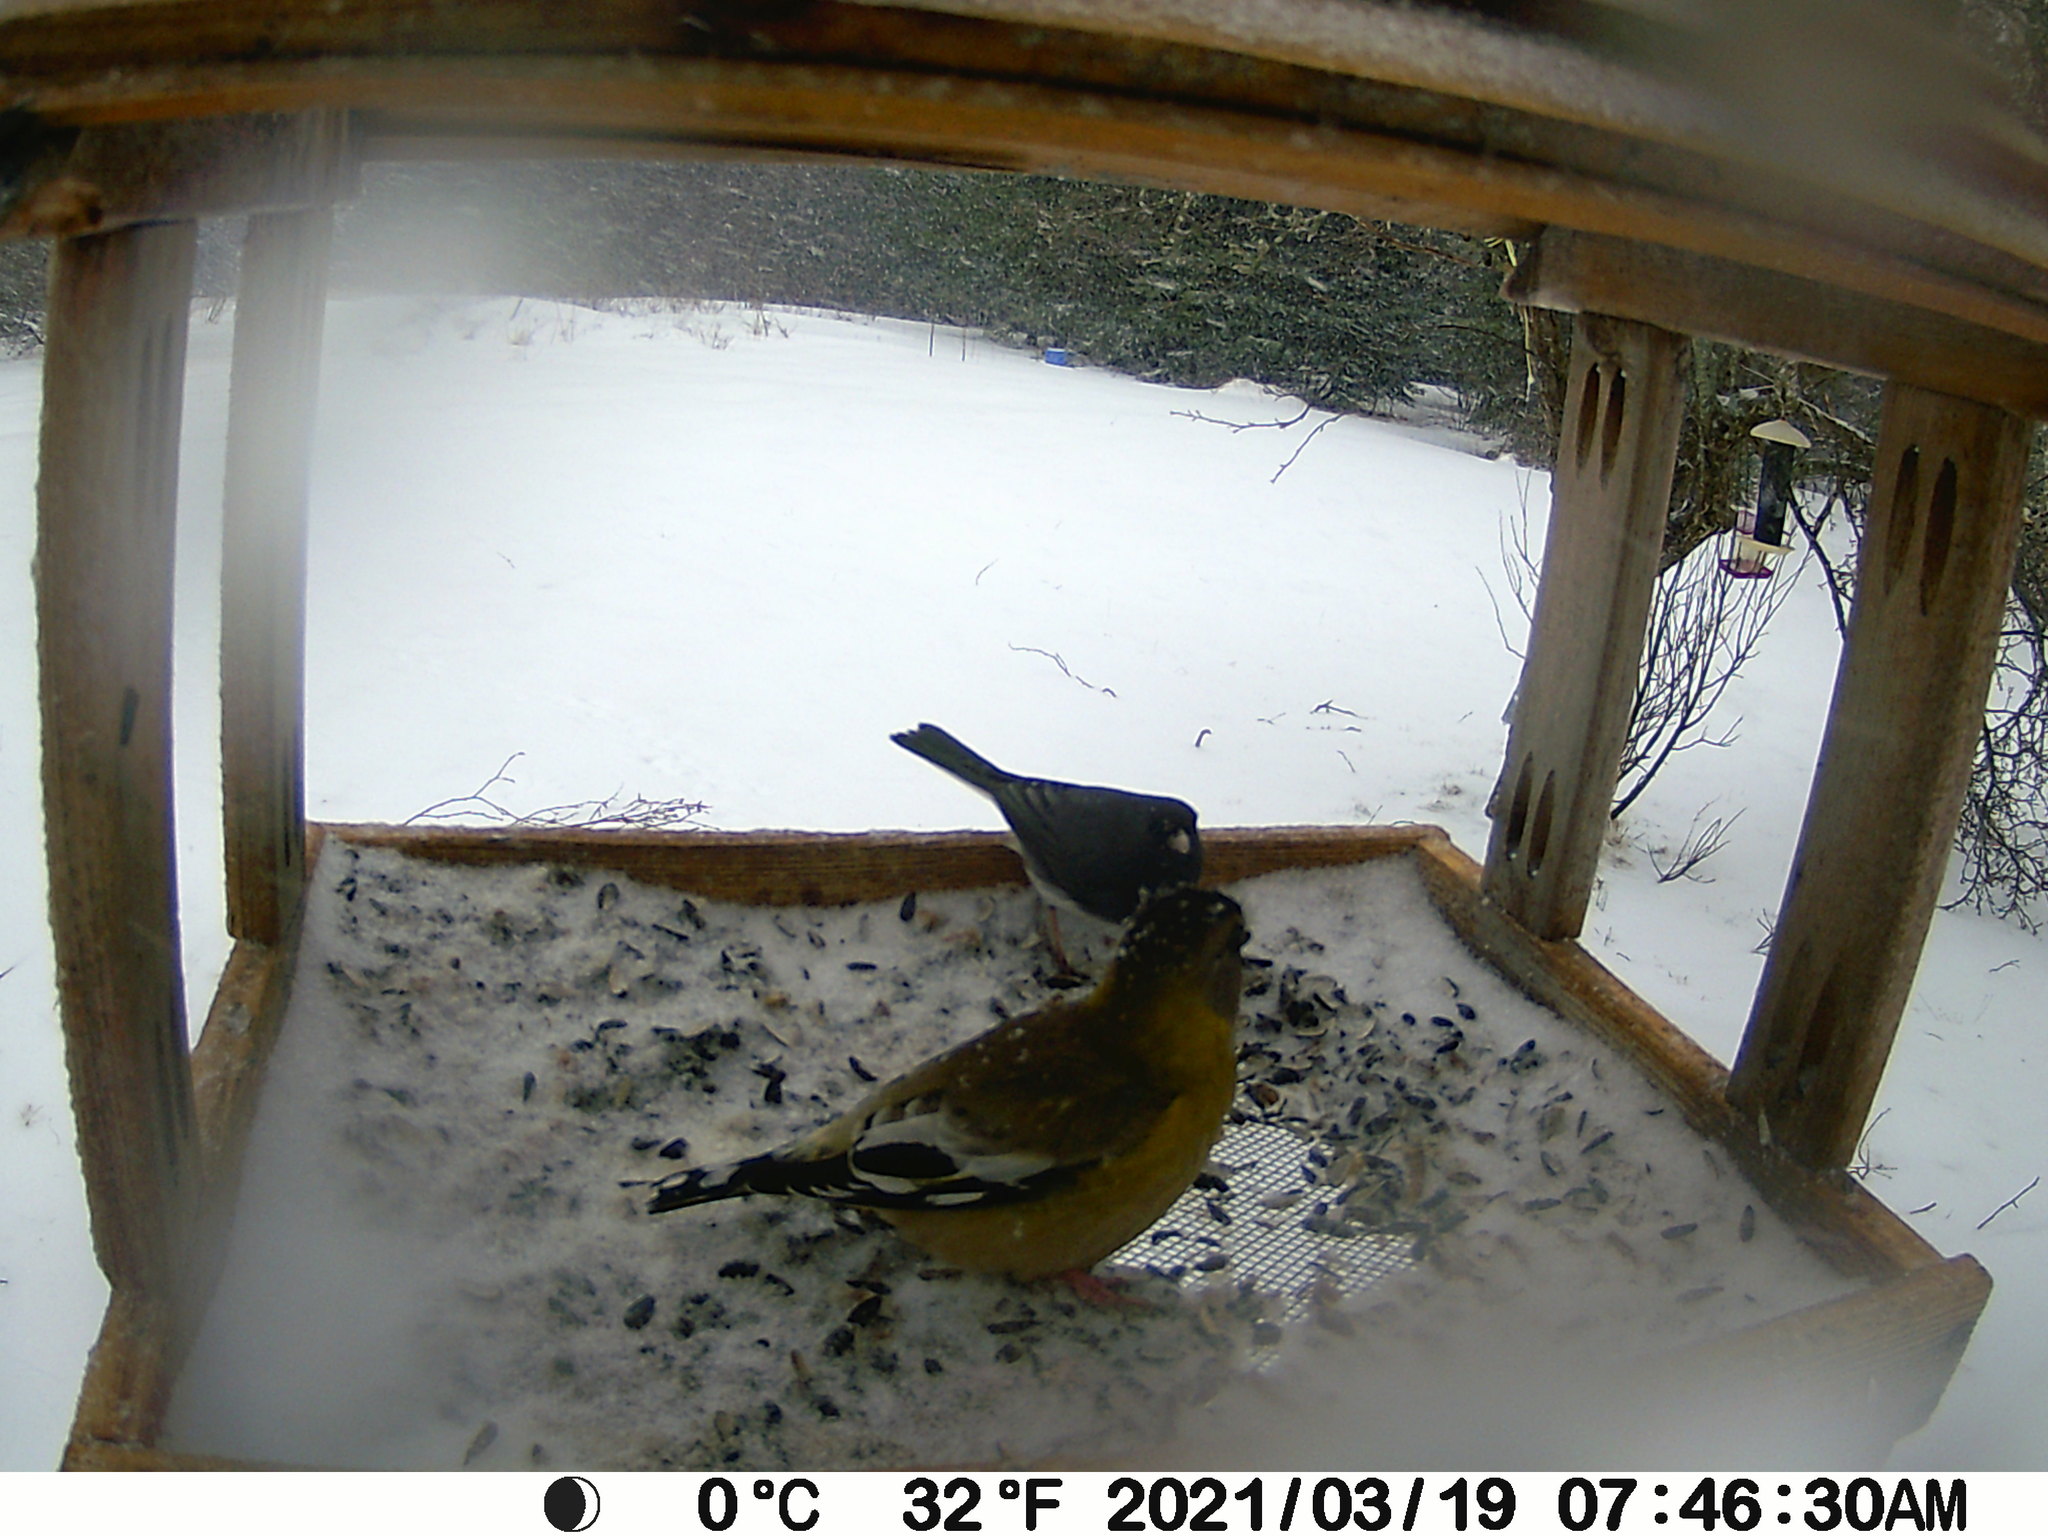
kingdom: Animalia
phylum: Chordata
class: Aves
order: Passeriformes
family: Passerellidae
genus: Junco
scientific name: Junco hyemalis
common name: Dark-eyed junco
